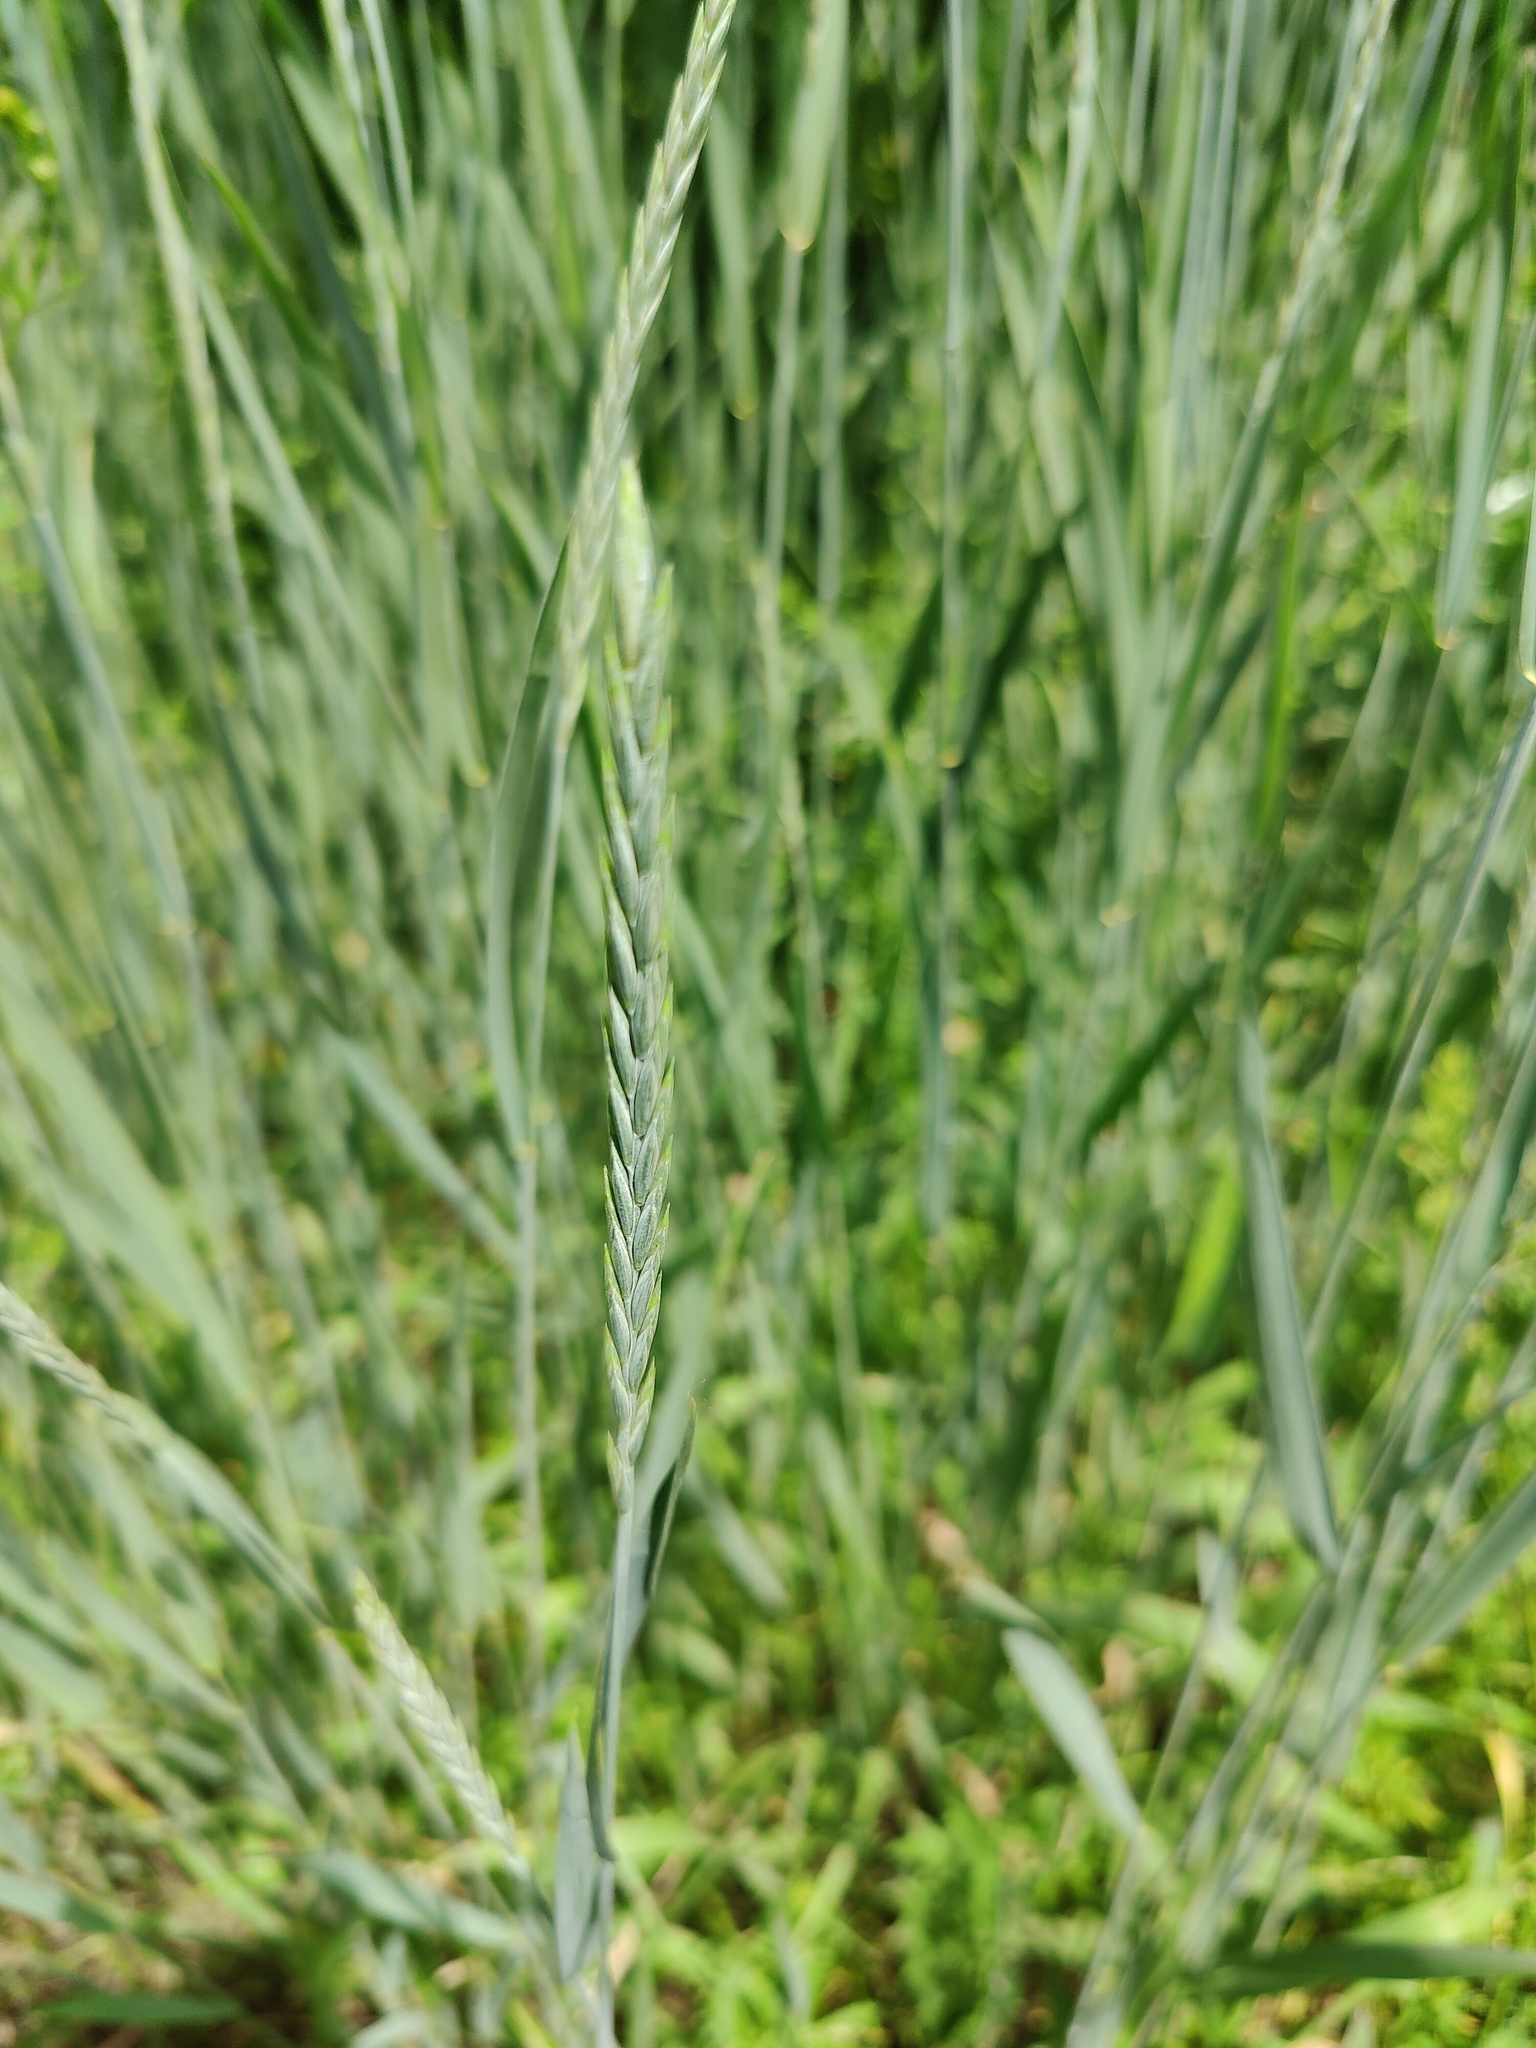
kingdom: Plantae
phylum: Tracheophyta
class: Liliopsida
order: Poales
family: Poaceae
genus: Thinopyrum
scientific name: Thinopyrum intermedium
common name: Intermediate wheatgrass
